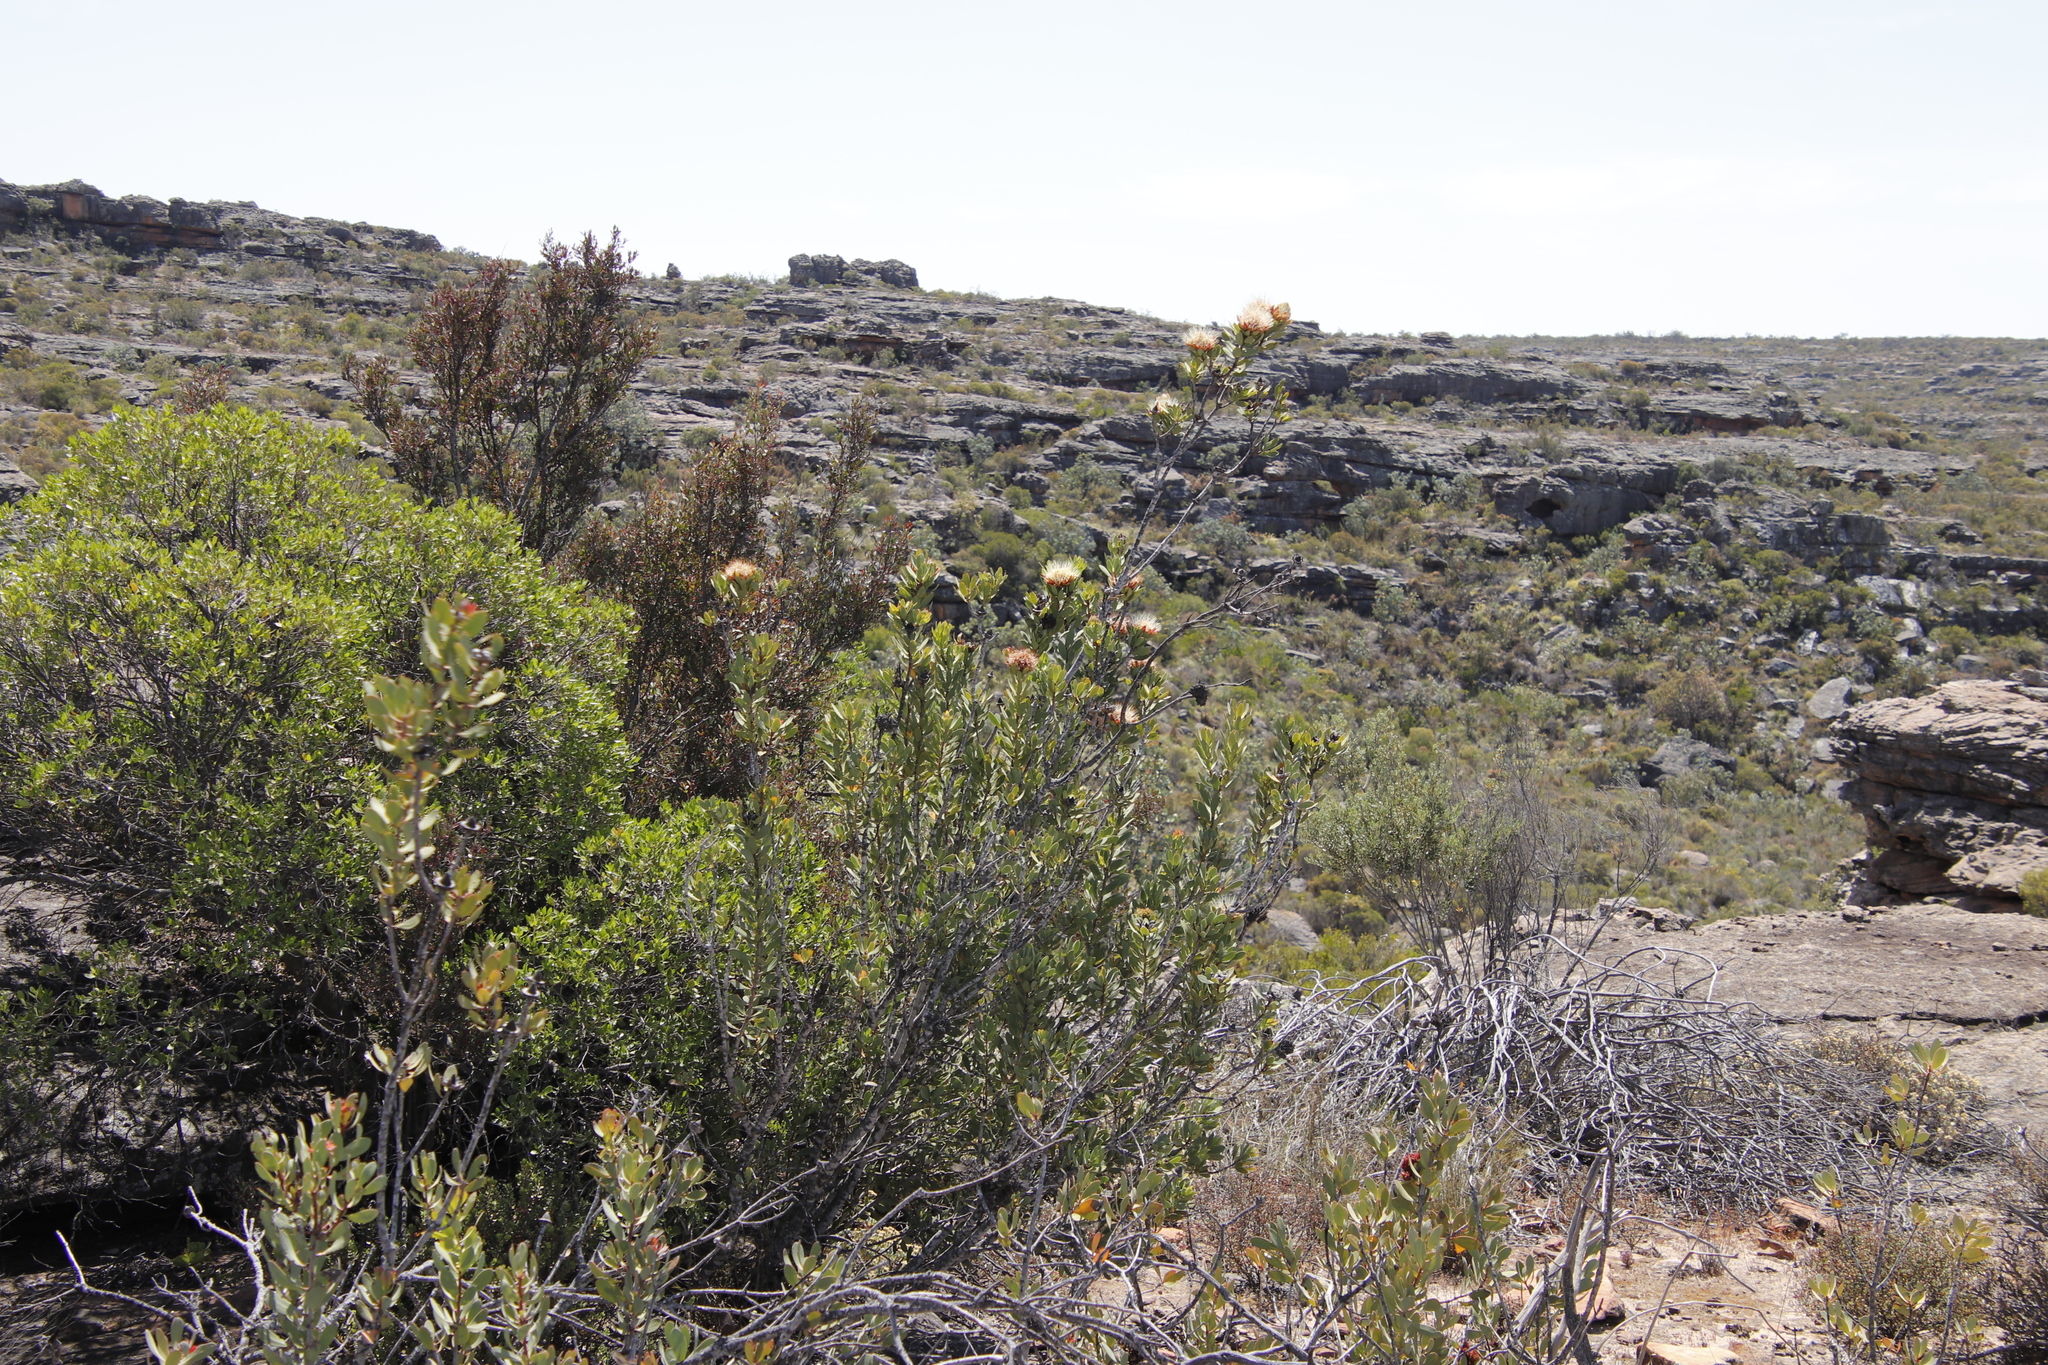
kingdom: Plantae
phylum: Tracheophyta
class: Magnoliopsida
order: Proteales
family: Proteaceae
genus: Protea
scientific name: Protea glabra
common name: Chestnut sugarbush
